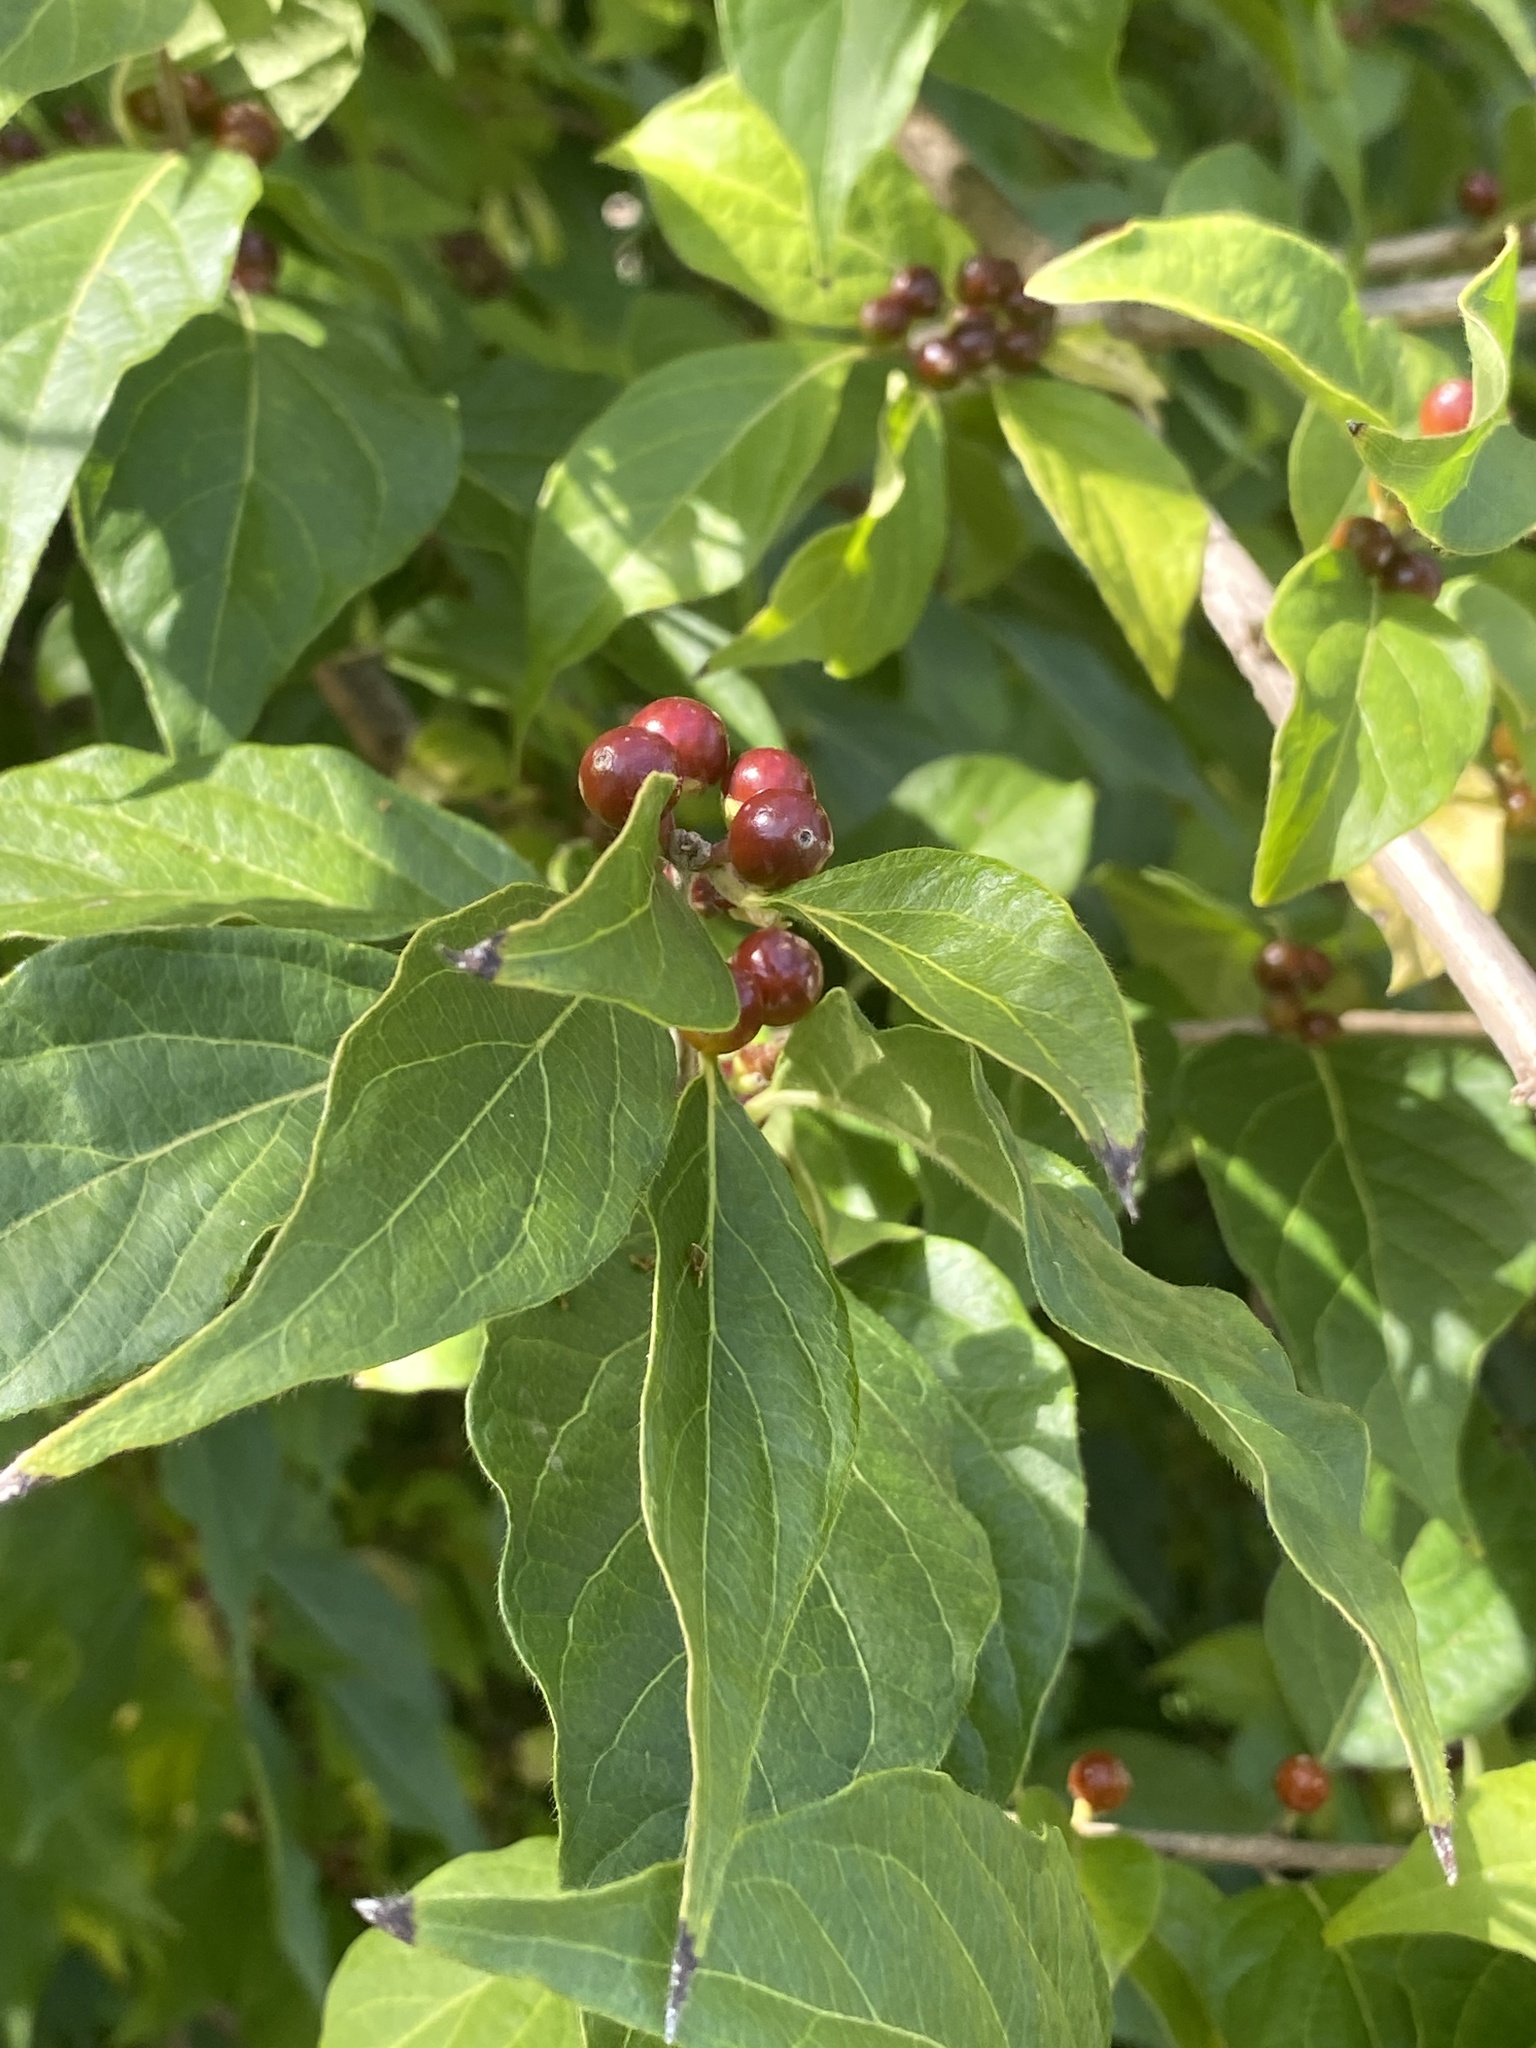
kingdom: Plantae
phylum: Tracheophyta
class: Magnoliopsida
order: Dipsacales
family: Caprifoliaceae
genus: Lonicera
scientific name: Lonicera maackii
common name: Amur honeysuckle
